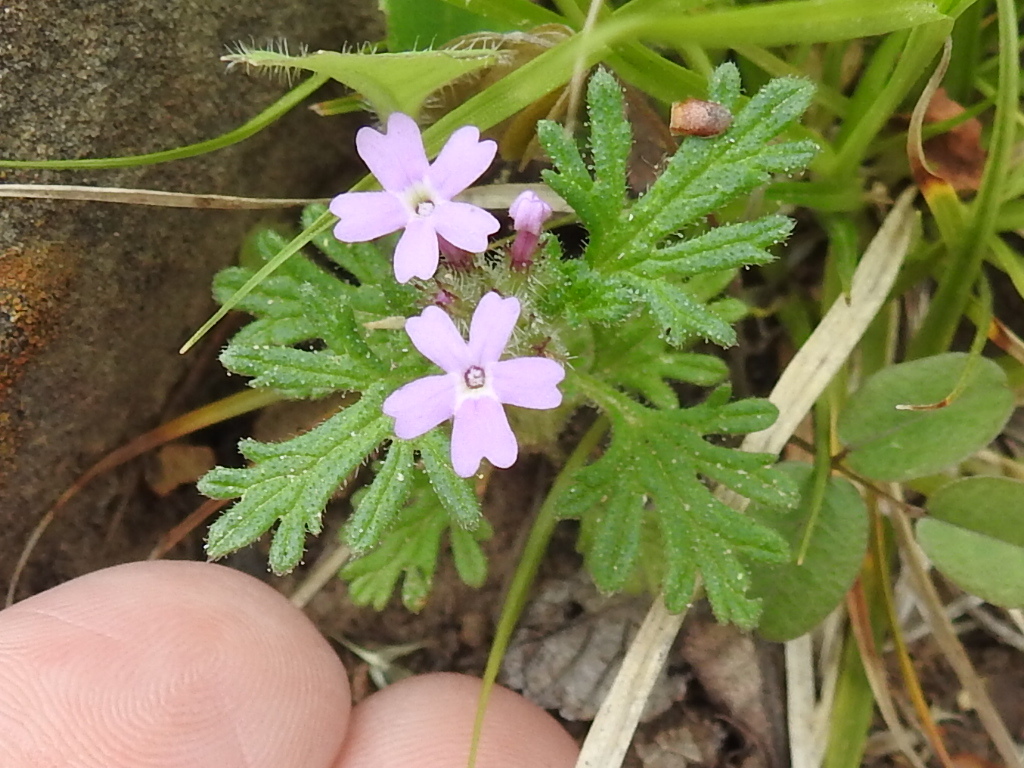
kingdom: Plantae
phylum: Tracheophyta
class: Magnoliopsida
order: Lamiales
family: Verbenaceae
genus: Verbena
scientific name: Verbena pumila
